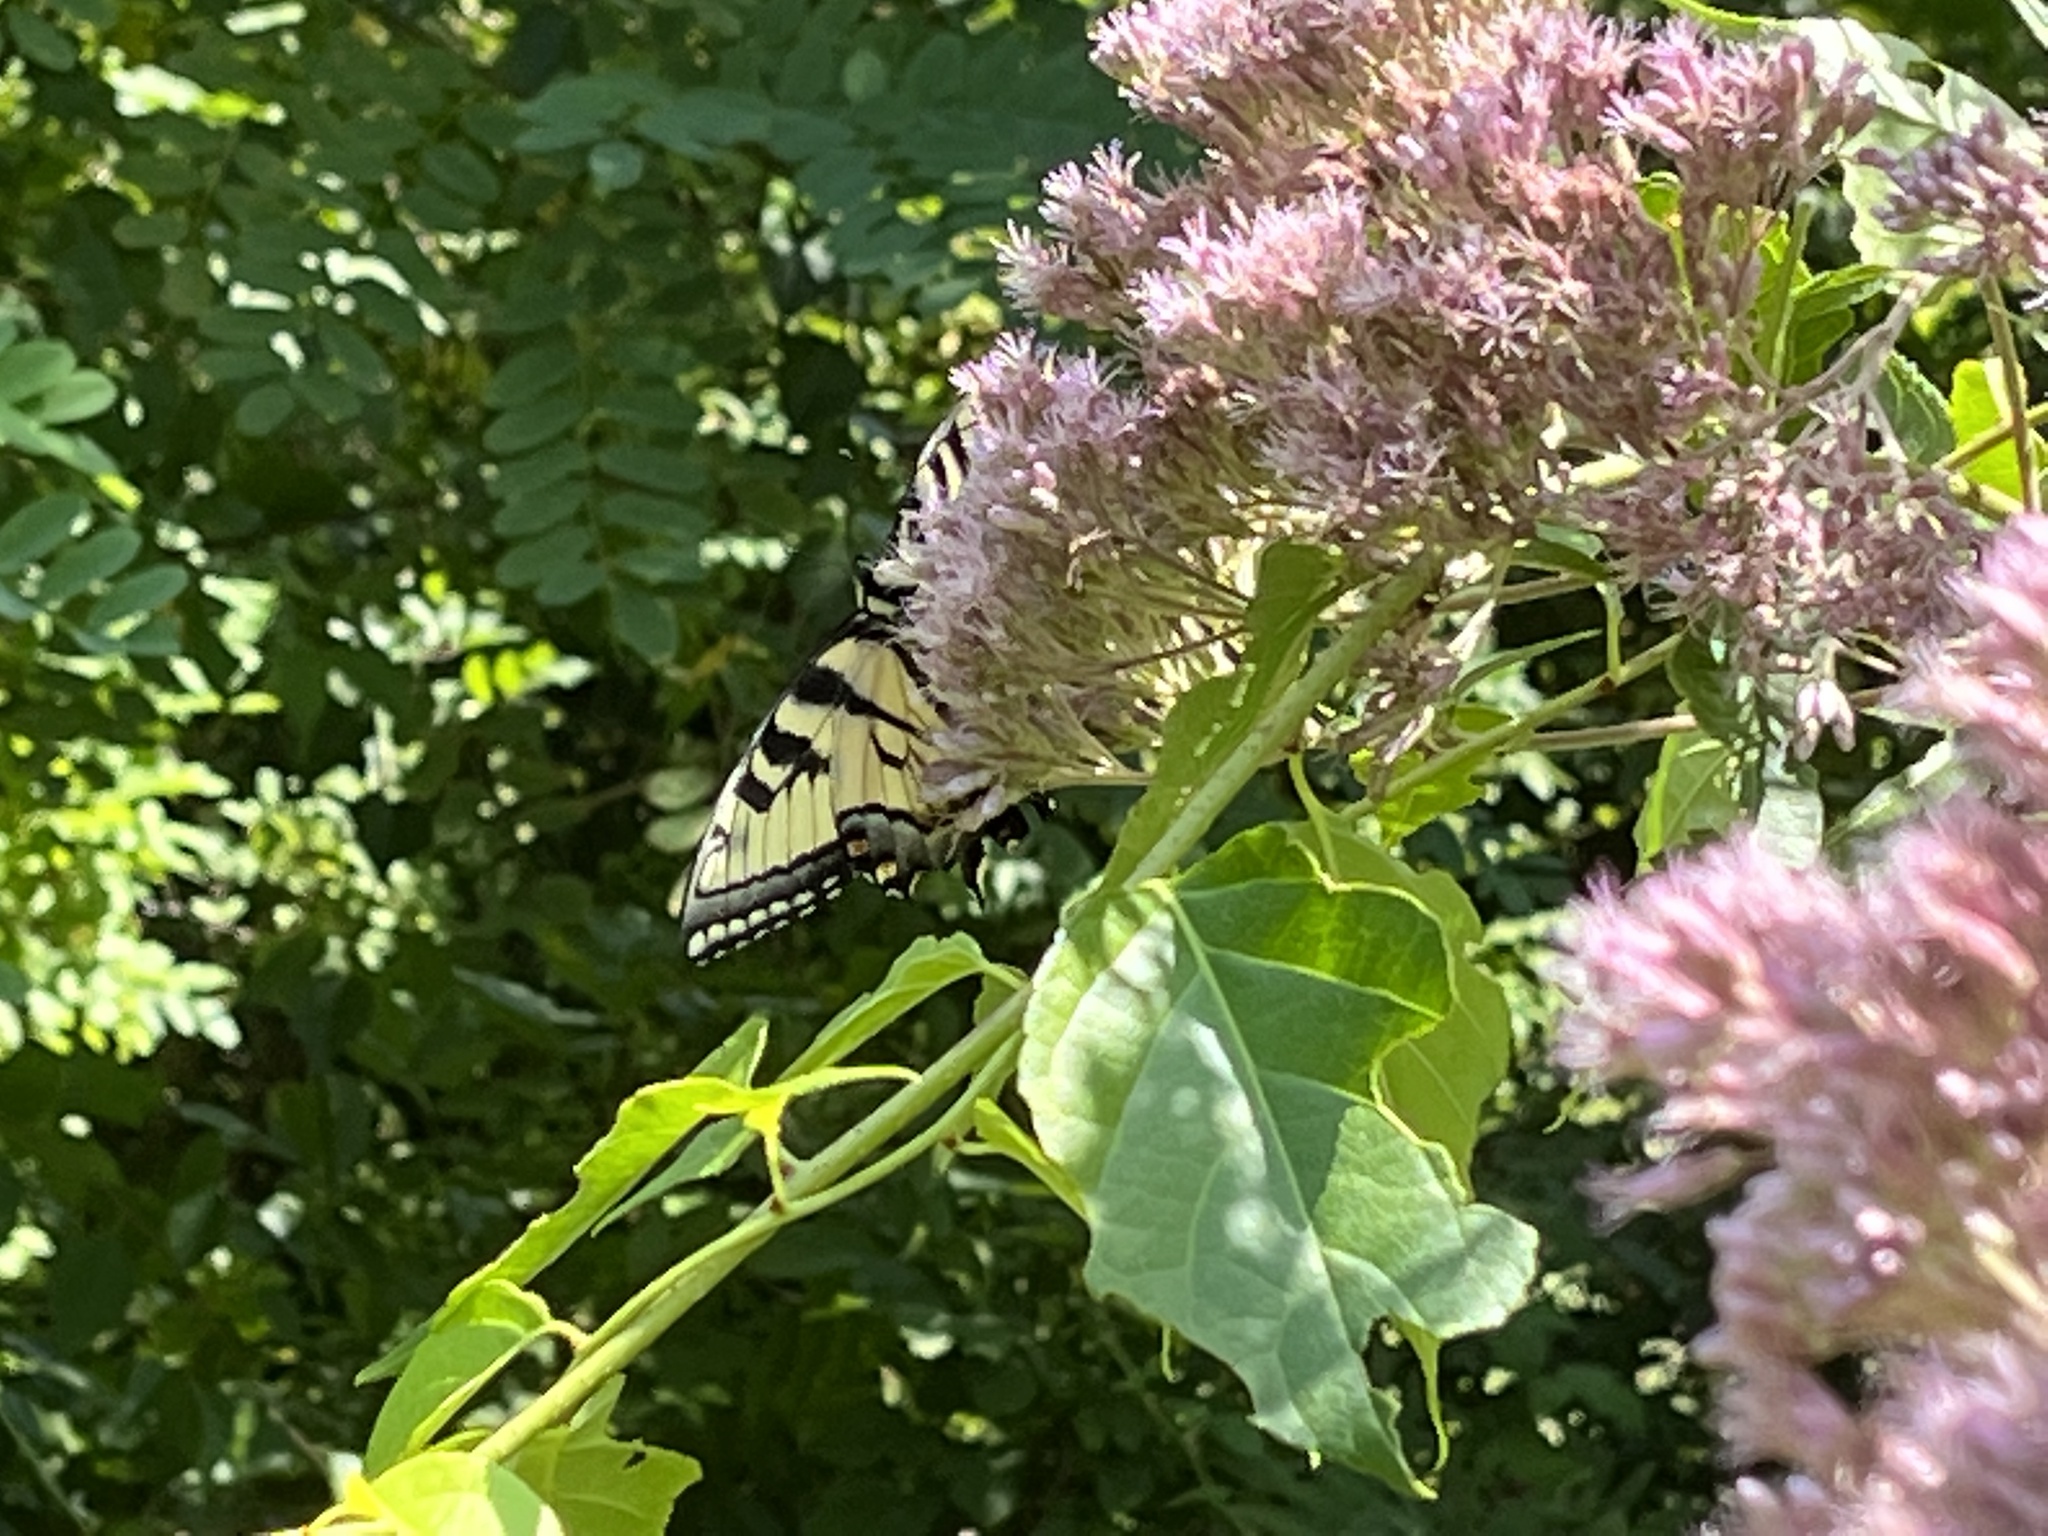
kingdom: Animalia
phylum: Arthropoda
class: Insecta
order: Lepidoptera
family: Papilionidae
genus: Papilio
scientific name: Papilio glaucus
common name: Tiger swallowtail
